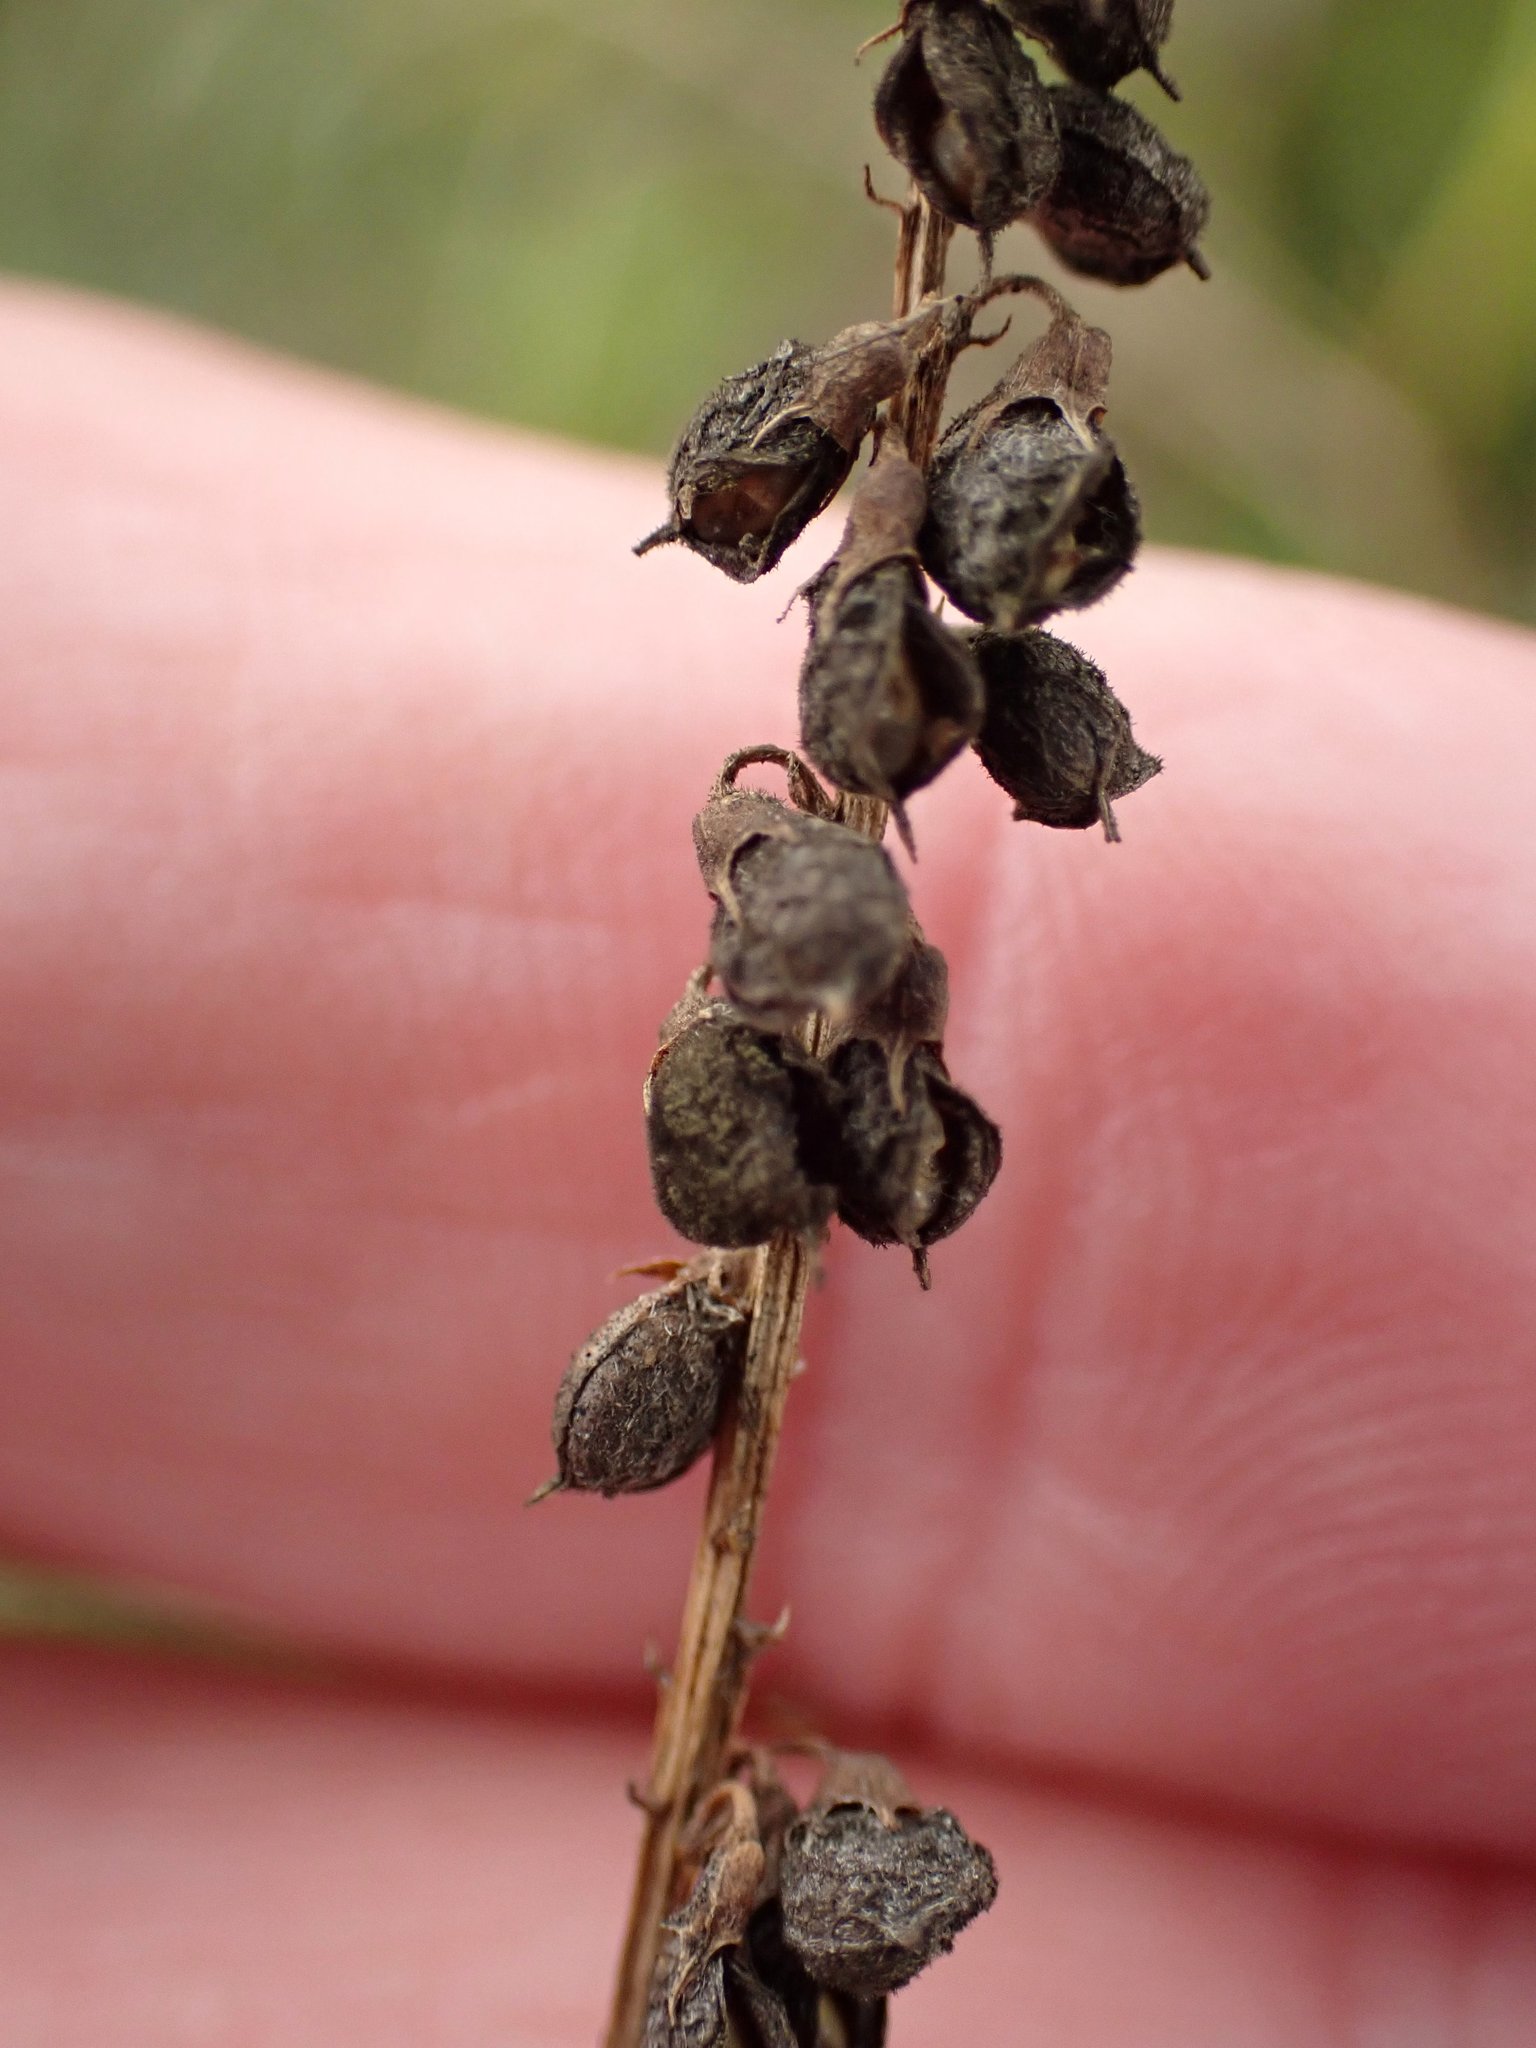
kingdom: Plantae
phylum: Tracheophyta
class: Magnoliopsida
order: Fabales
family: Fabaceae
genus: Melilotus
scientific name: Melilotus altissimus
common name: Tall melilot
